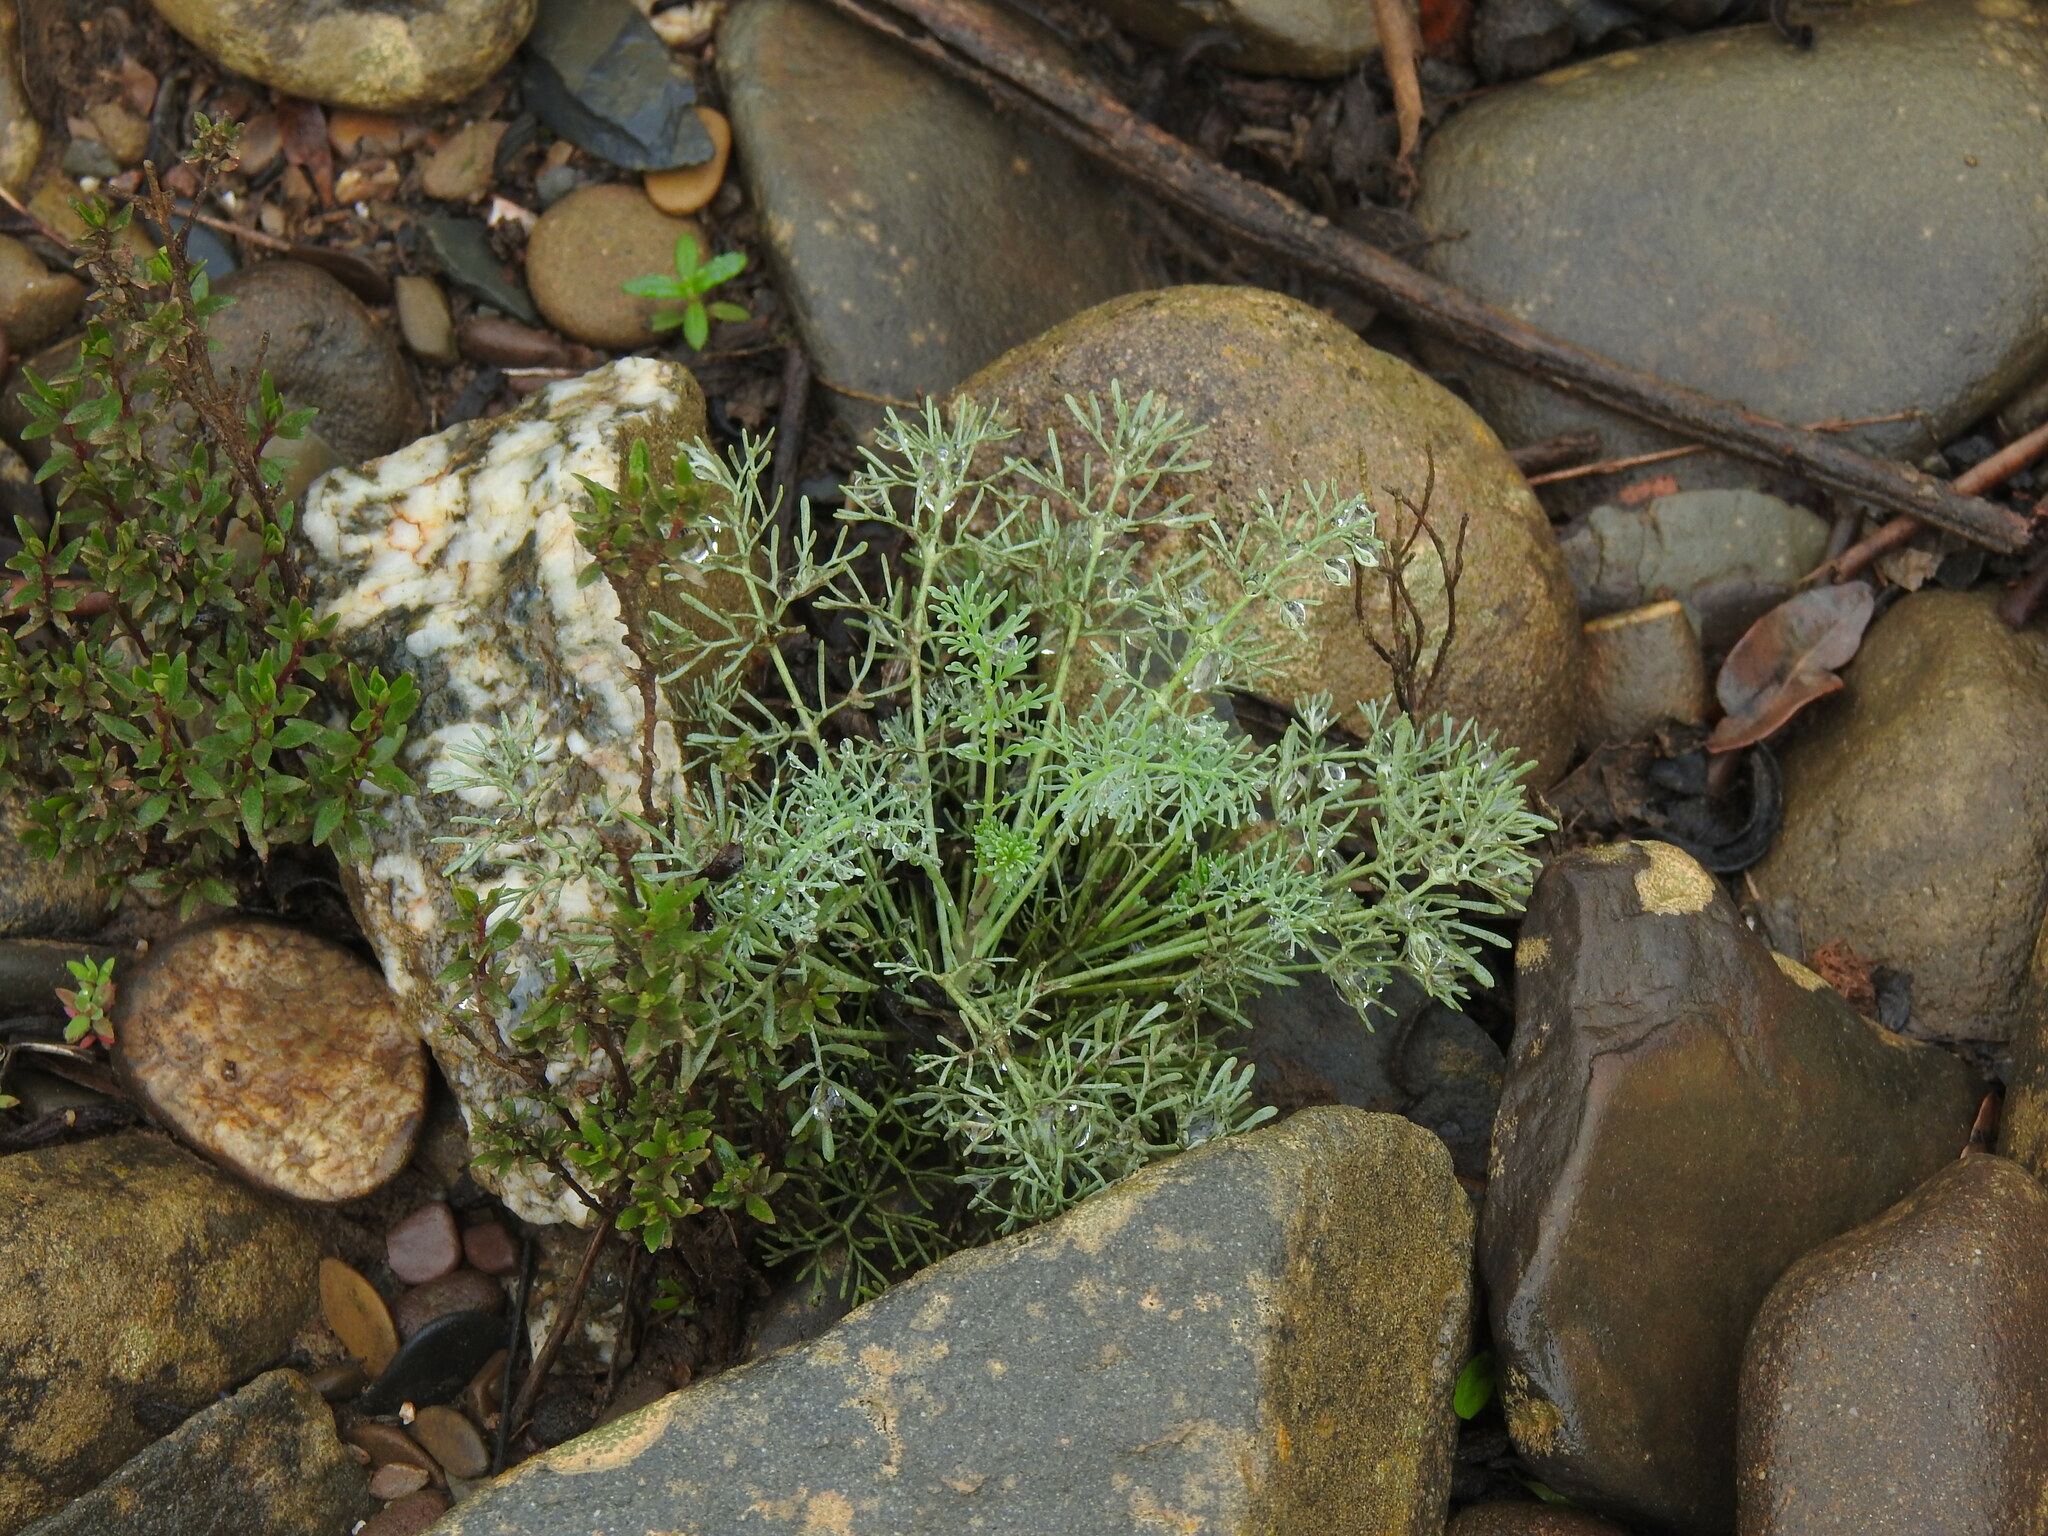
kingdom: Plantae
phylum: Tracheophyta
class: Magnoliopsida
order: Sapindales
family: Rutaceae
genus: Ruta
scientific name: Ruta montana
